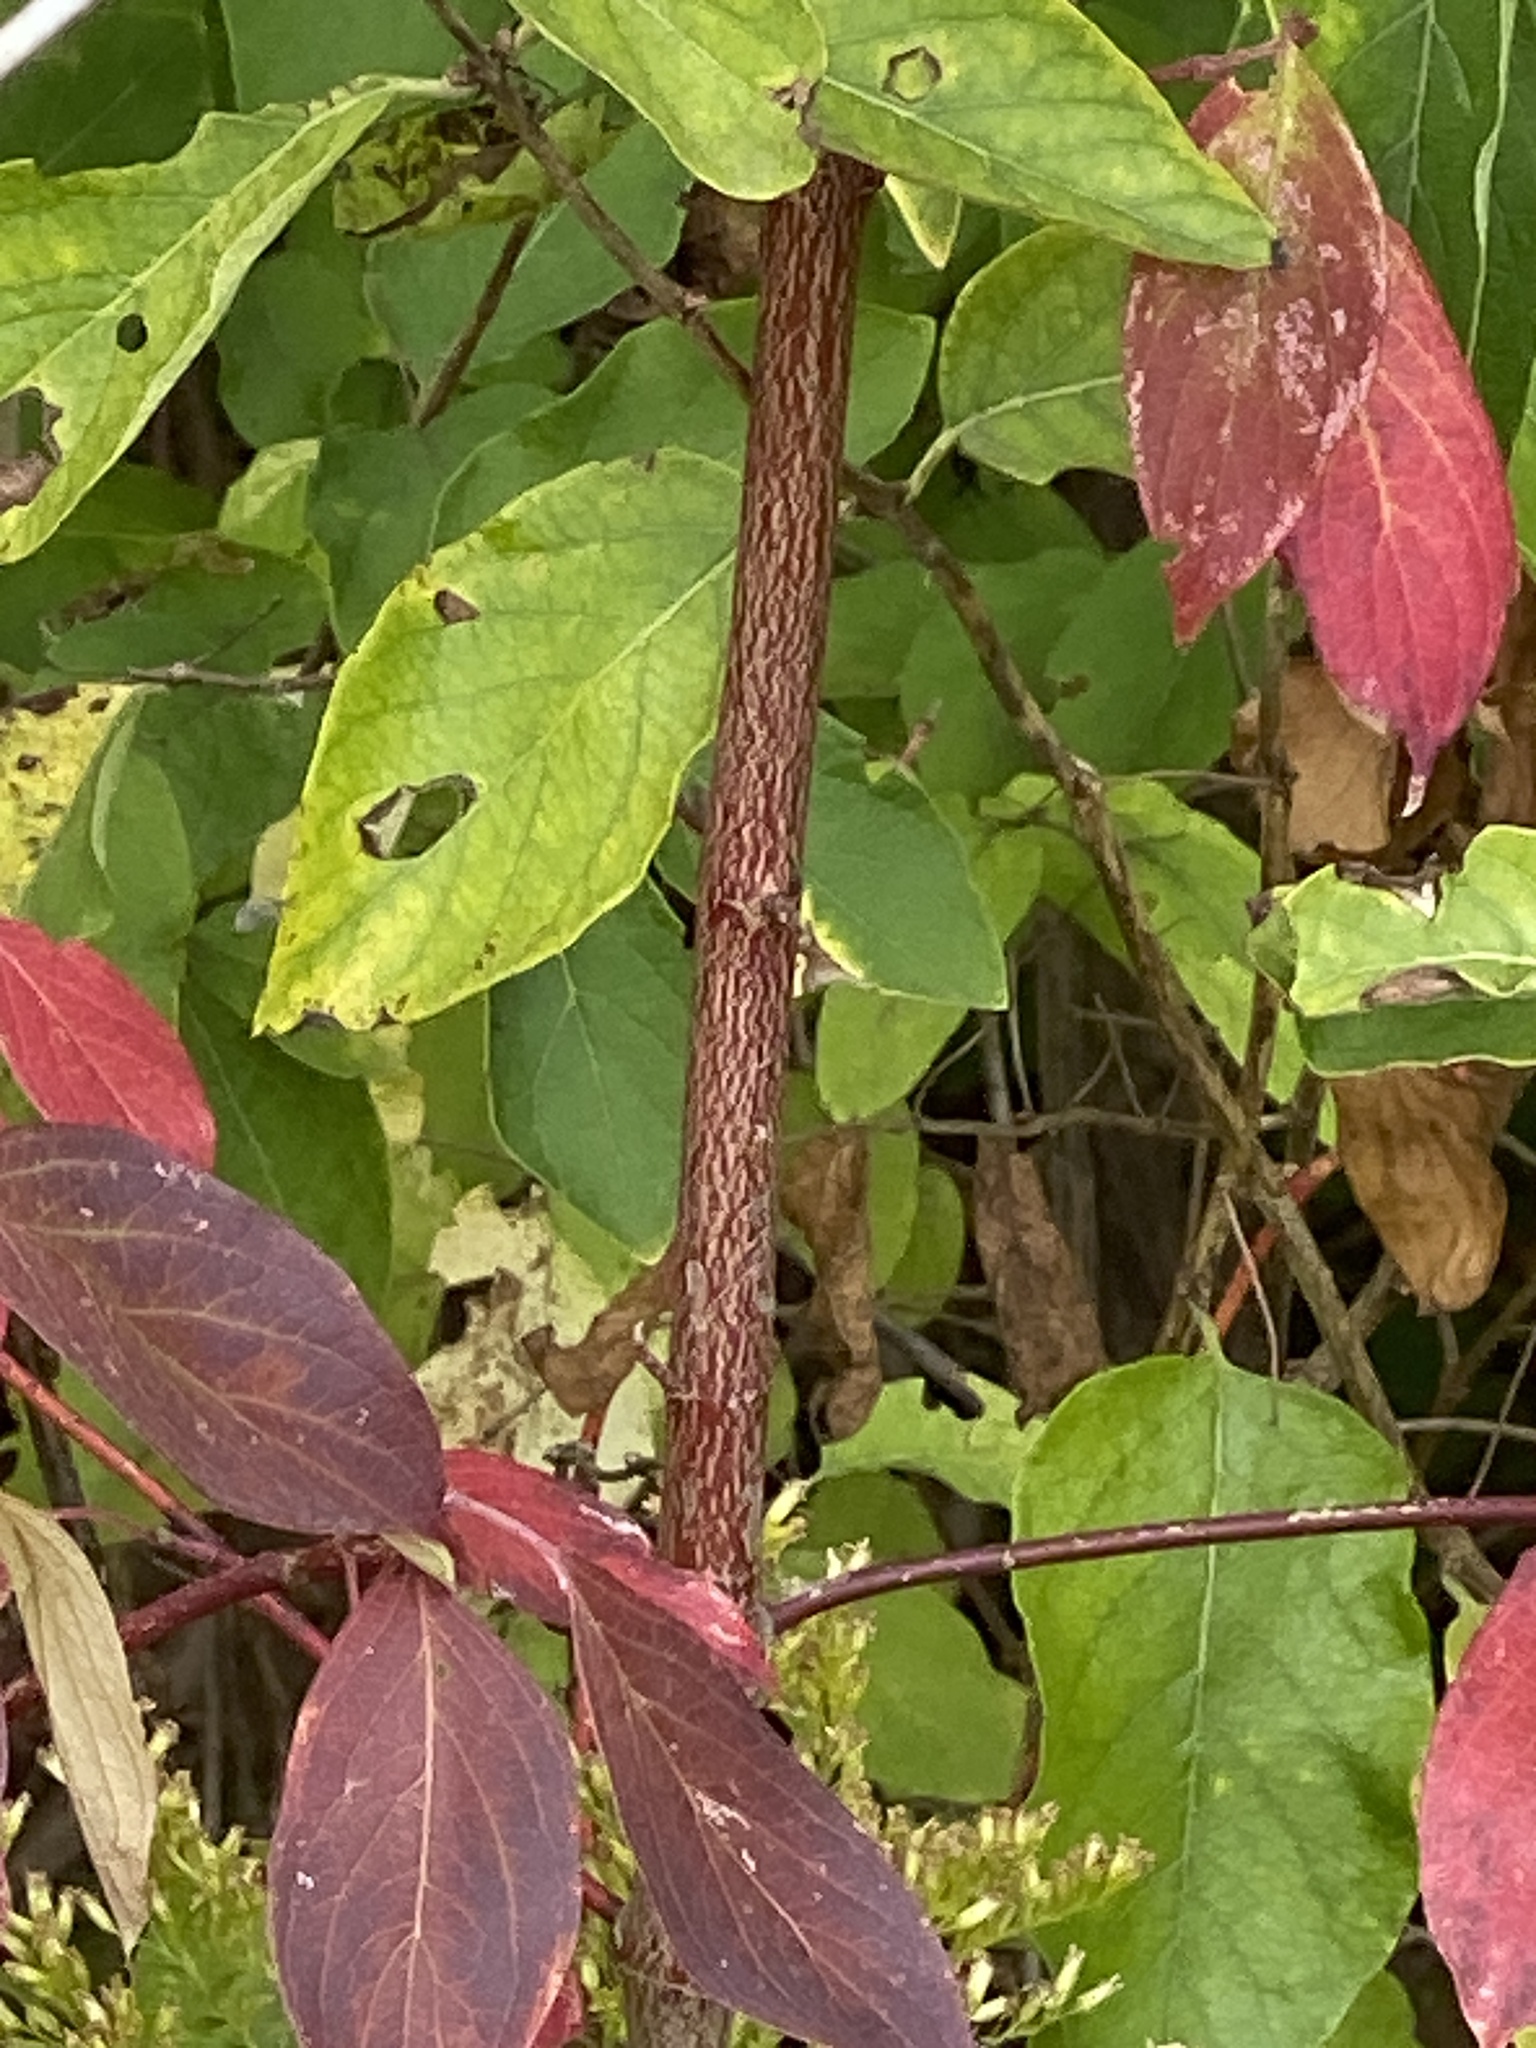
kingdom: Plantae
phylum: Tracheophyta
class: Magnoliopsida
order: Cornales
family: Cornaceae
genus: Cornus
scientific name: Cornus amomum
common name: Silky dogwood
